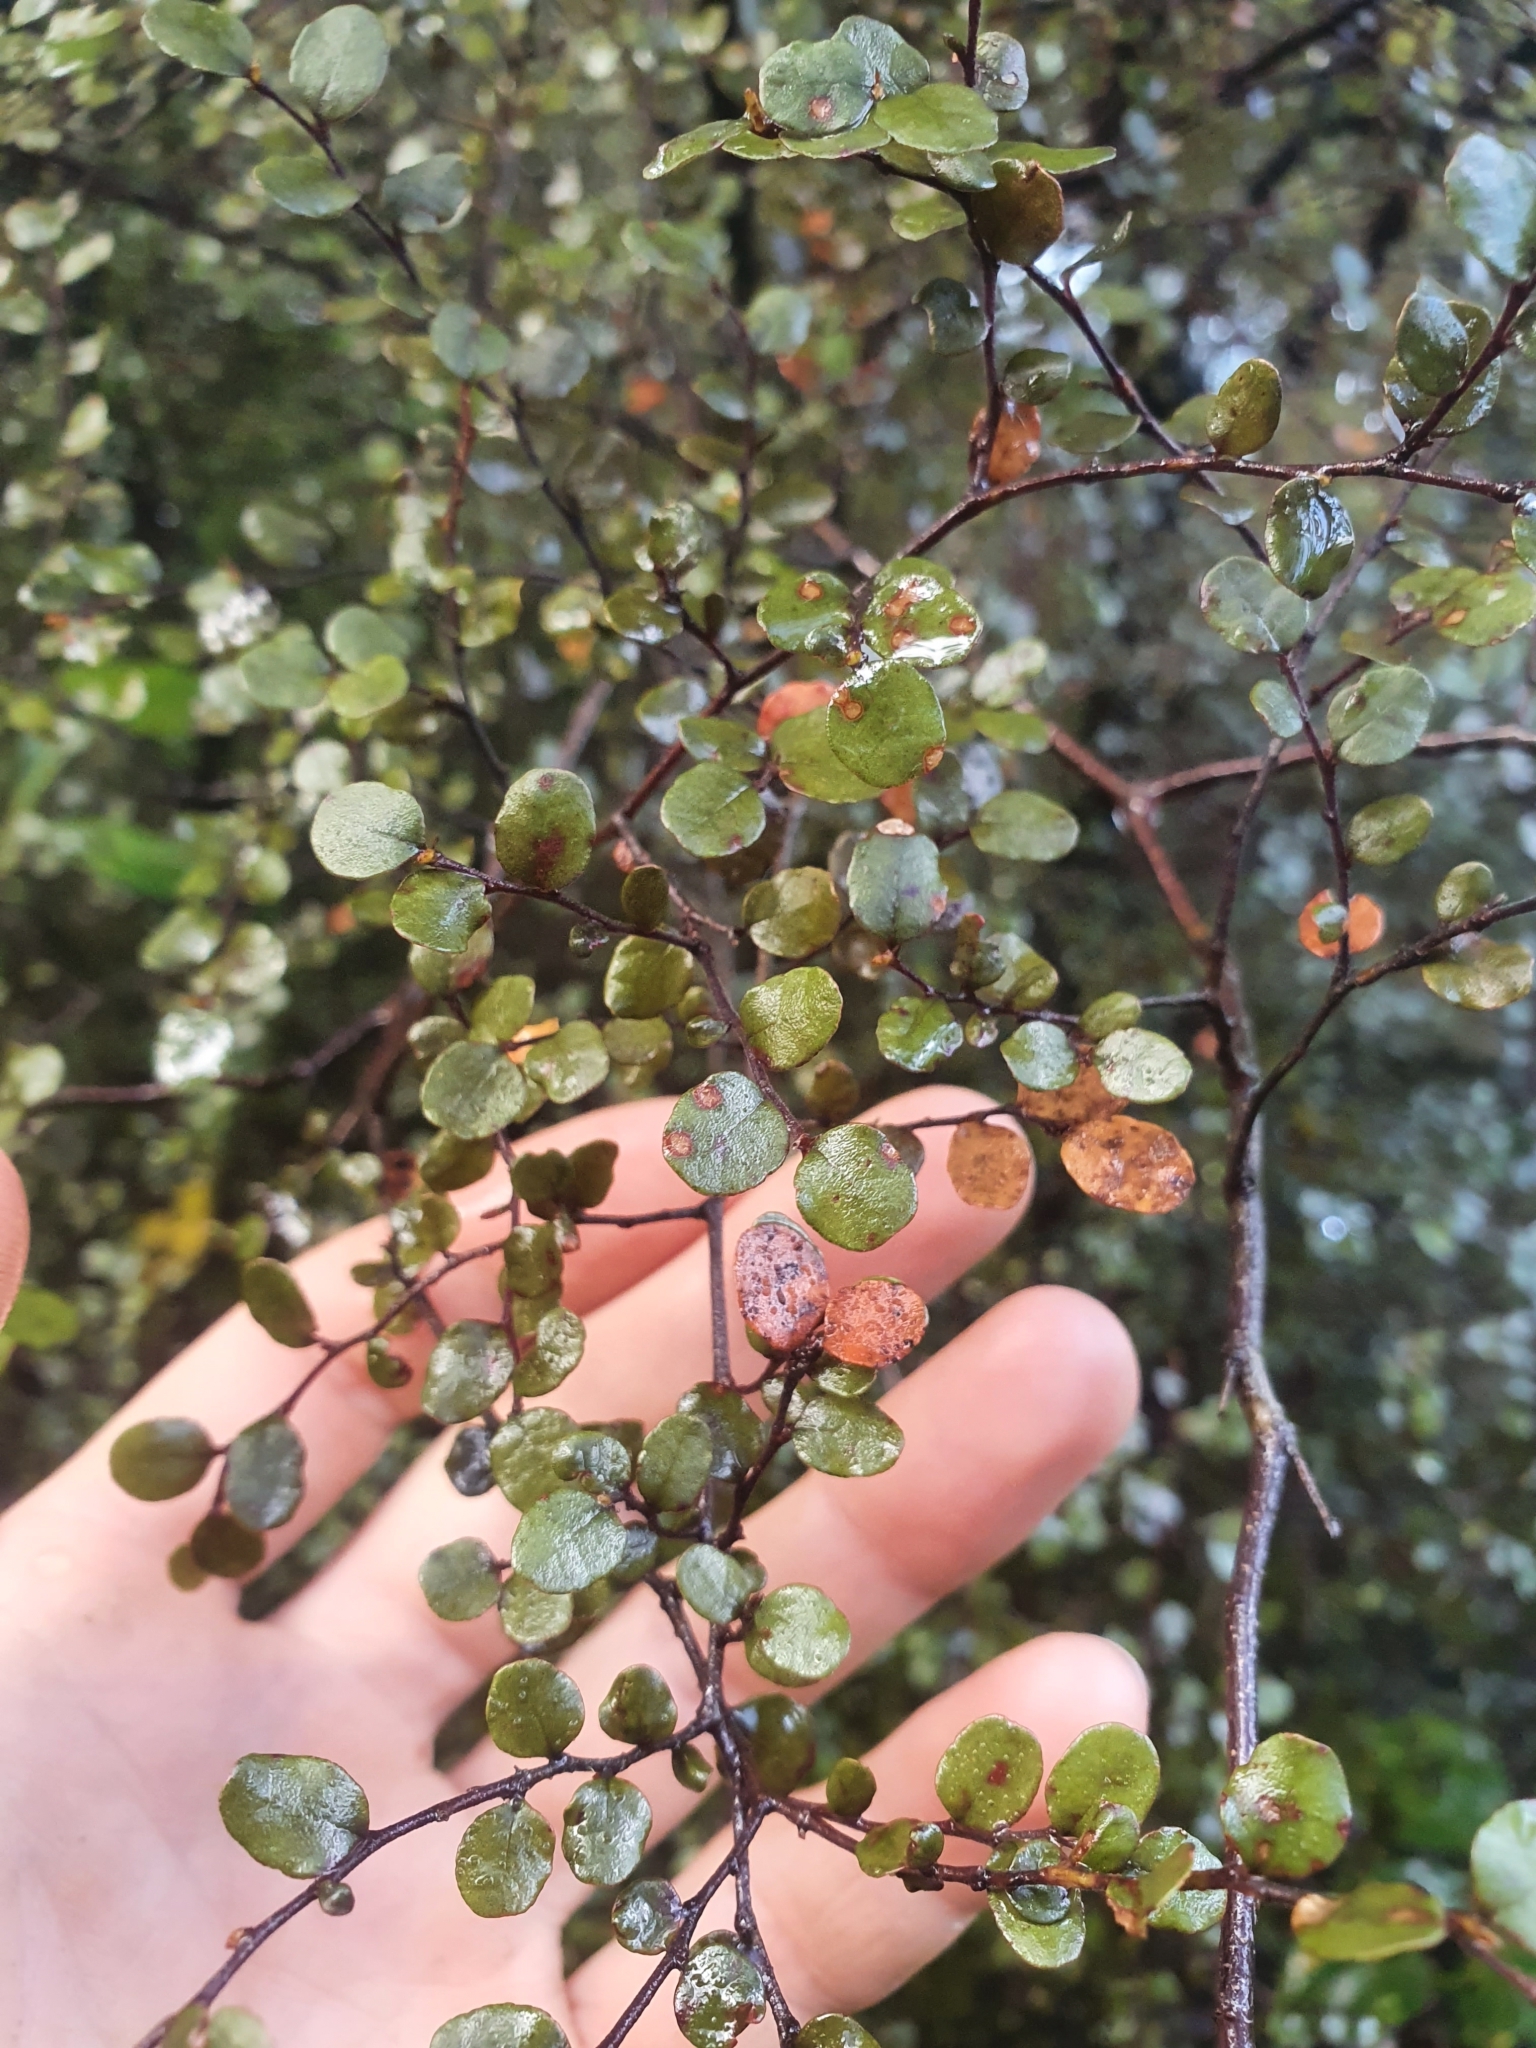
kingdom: Plantae
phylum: Tracheophyta
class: Magnoliopsida
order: Fagales
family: Nothofagaceae
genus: Nothofagus
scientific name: Nothofagus solandri
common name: Black beech
